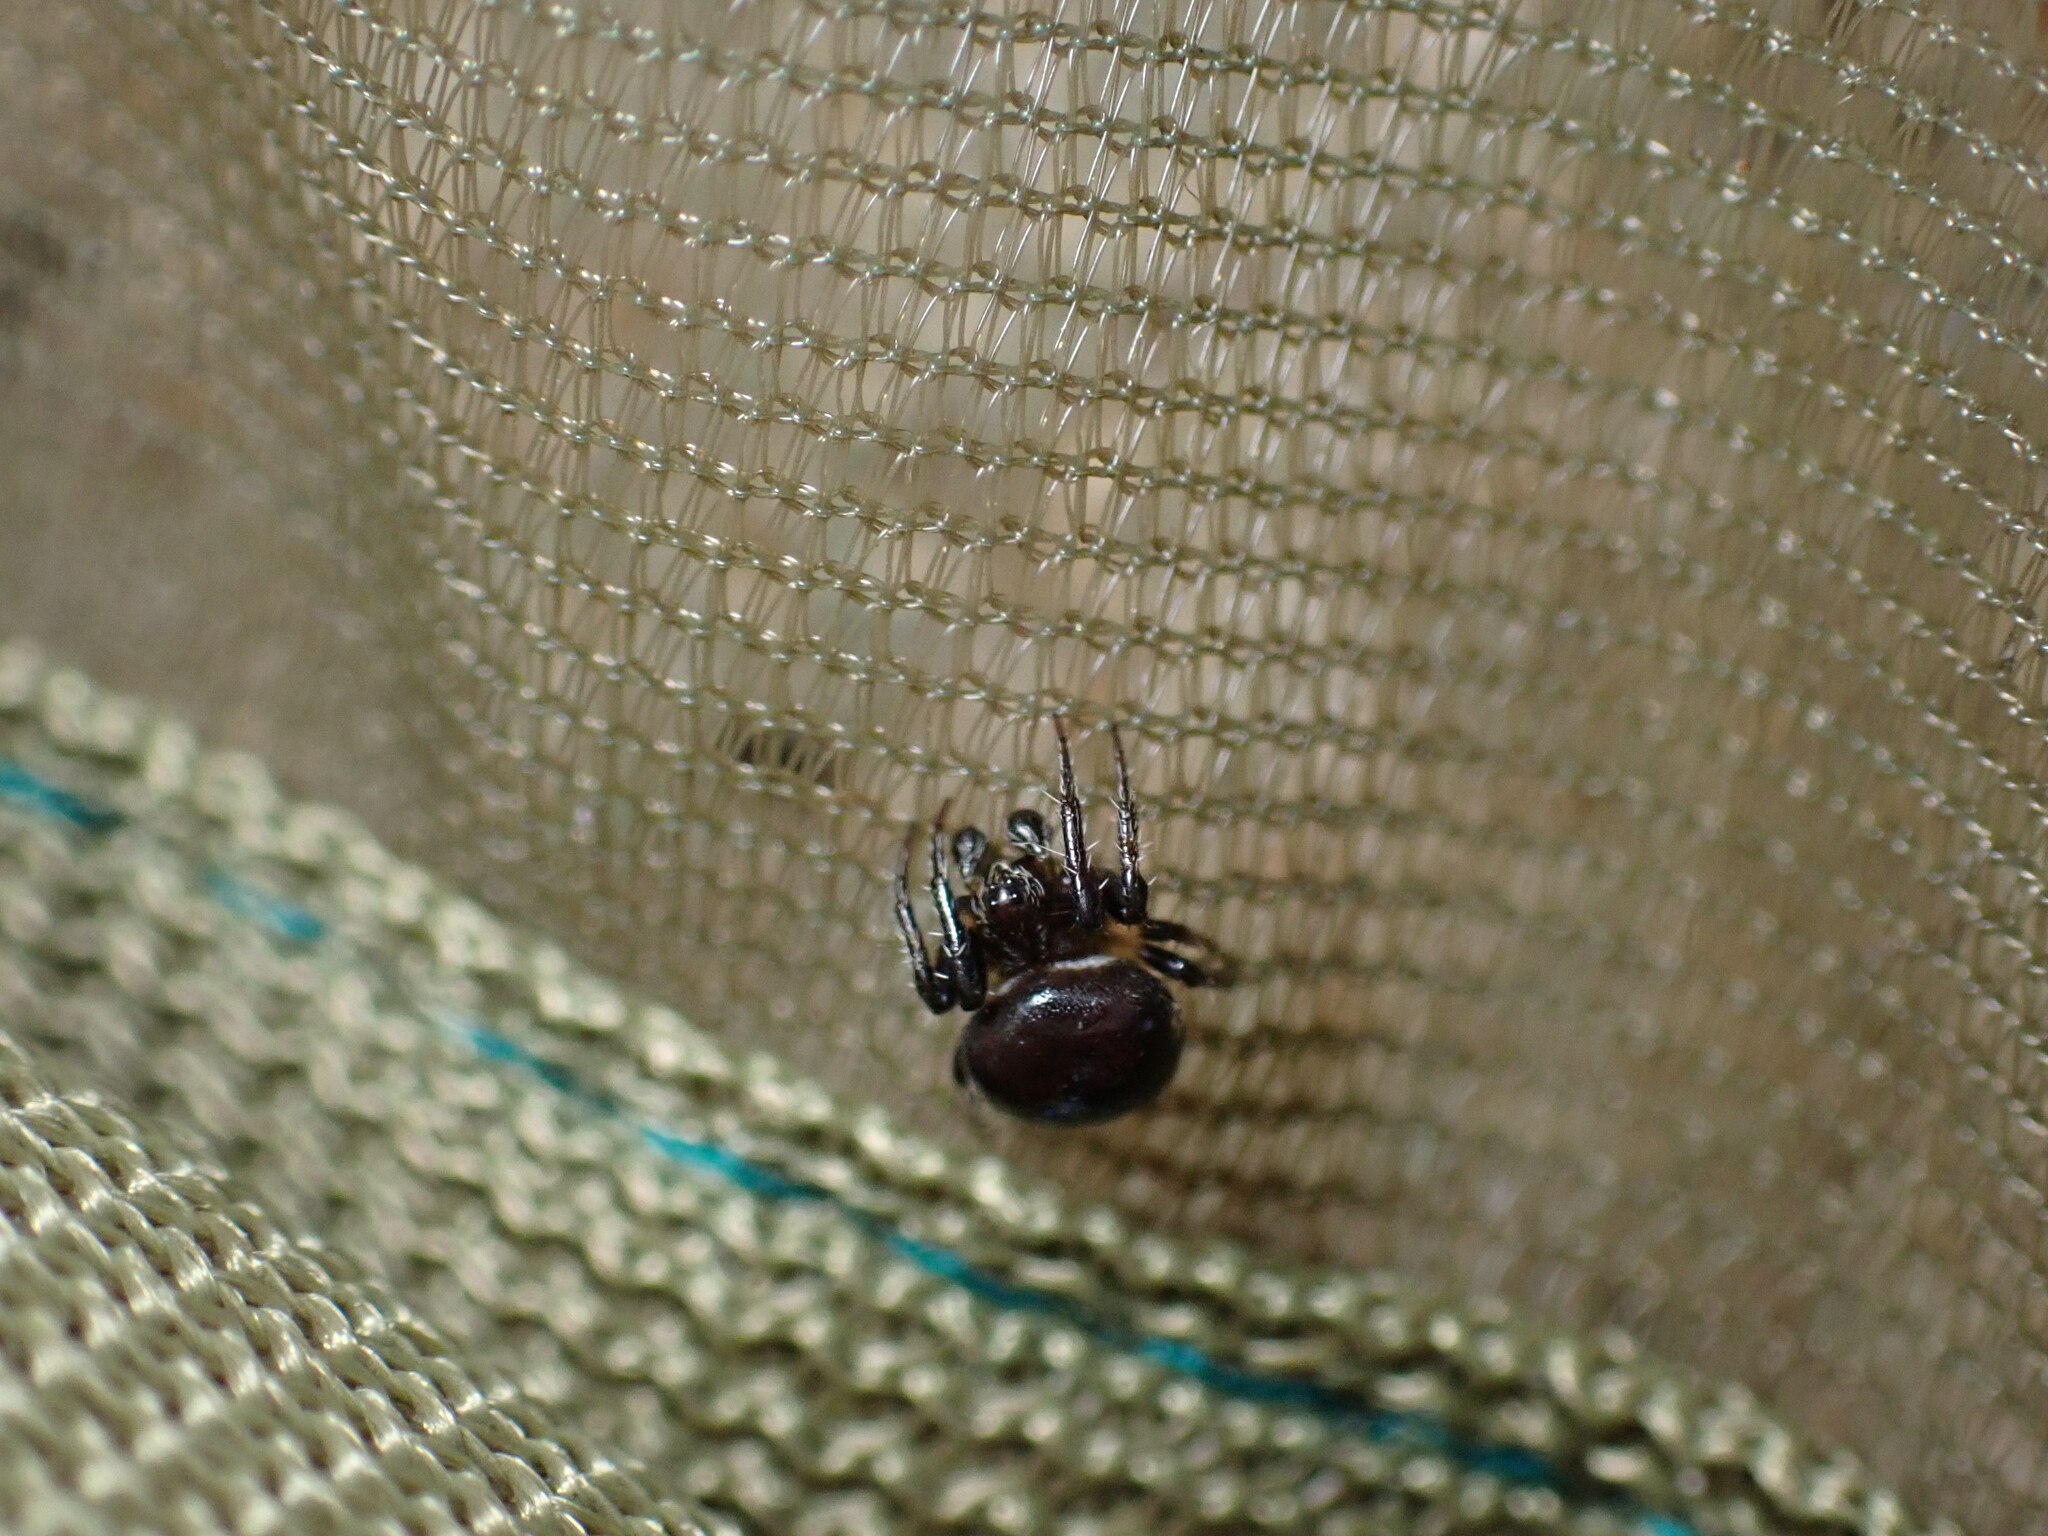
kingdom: Animalia
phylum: Arthropoda
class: Arachnida
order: Araneae
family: Araneidae
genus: Eriovixia
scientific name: Eriovixia sakiedaorum
